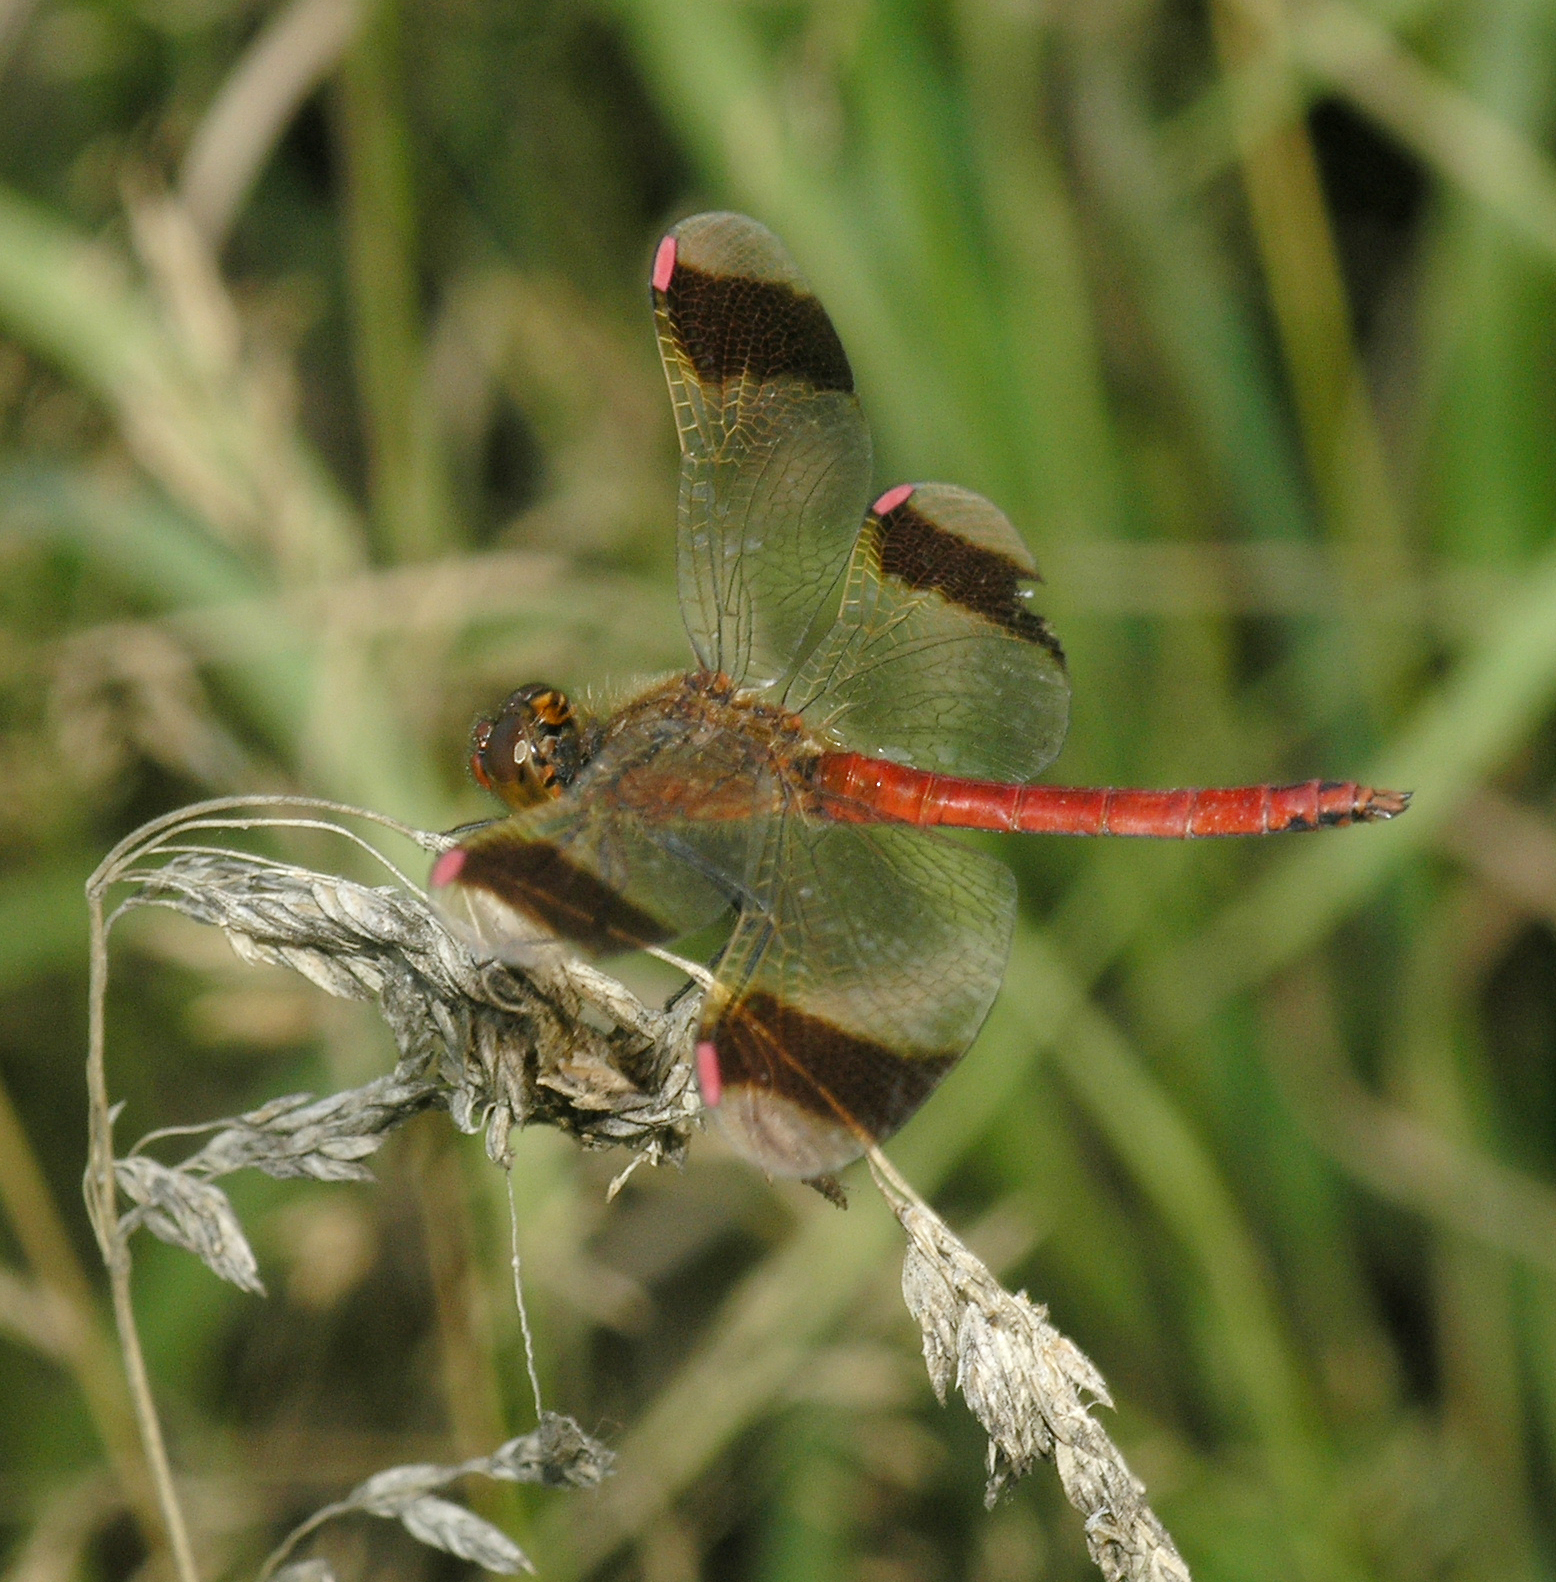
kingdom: Animalia
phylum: Arthropoda
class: Insecta
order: Odonata
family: Libellulidae
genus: Sympetrum
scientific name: Sympetrum pedemontanum
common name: Banded darter
